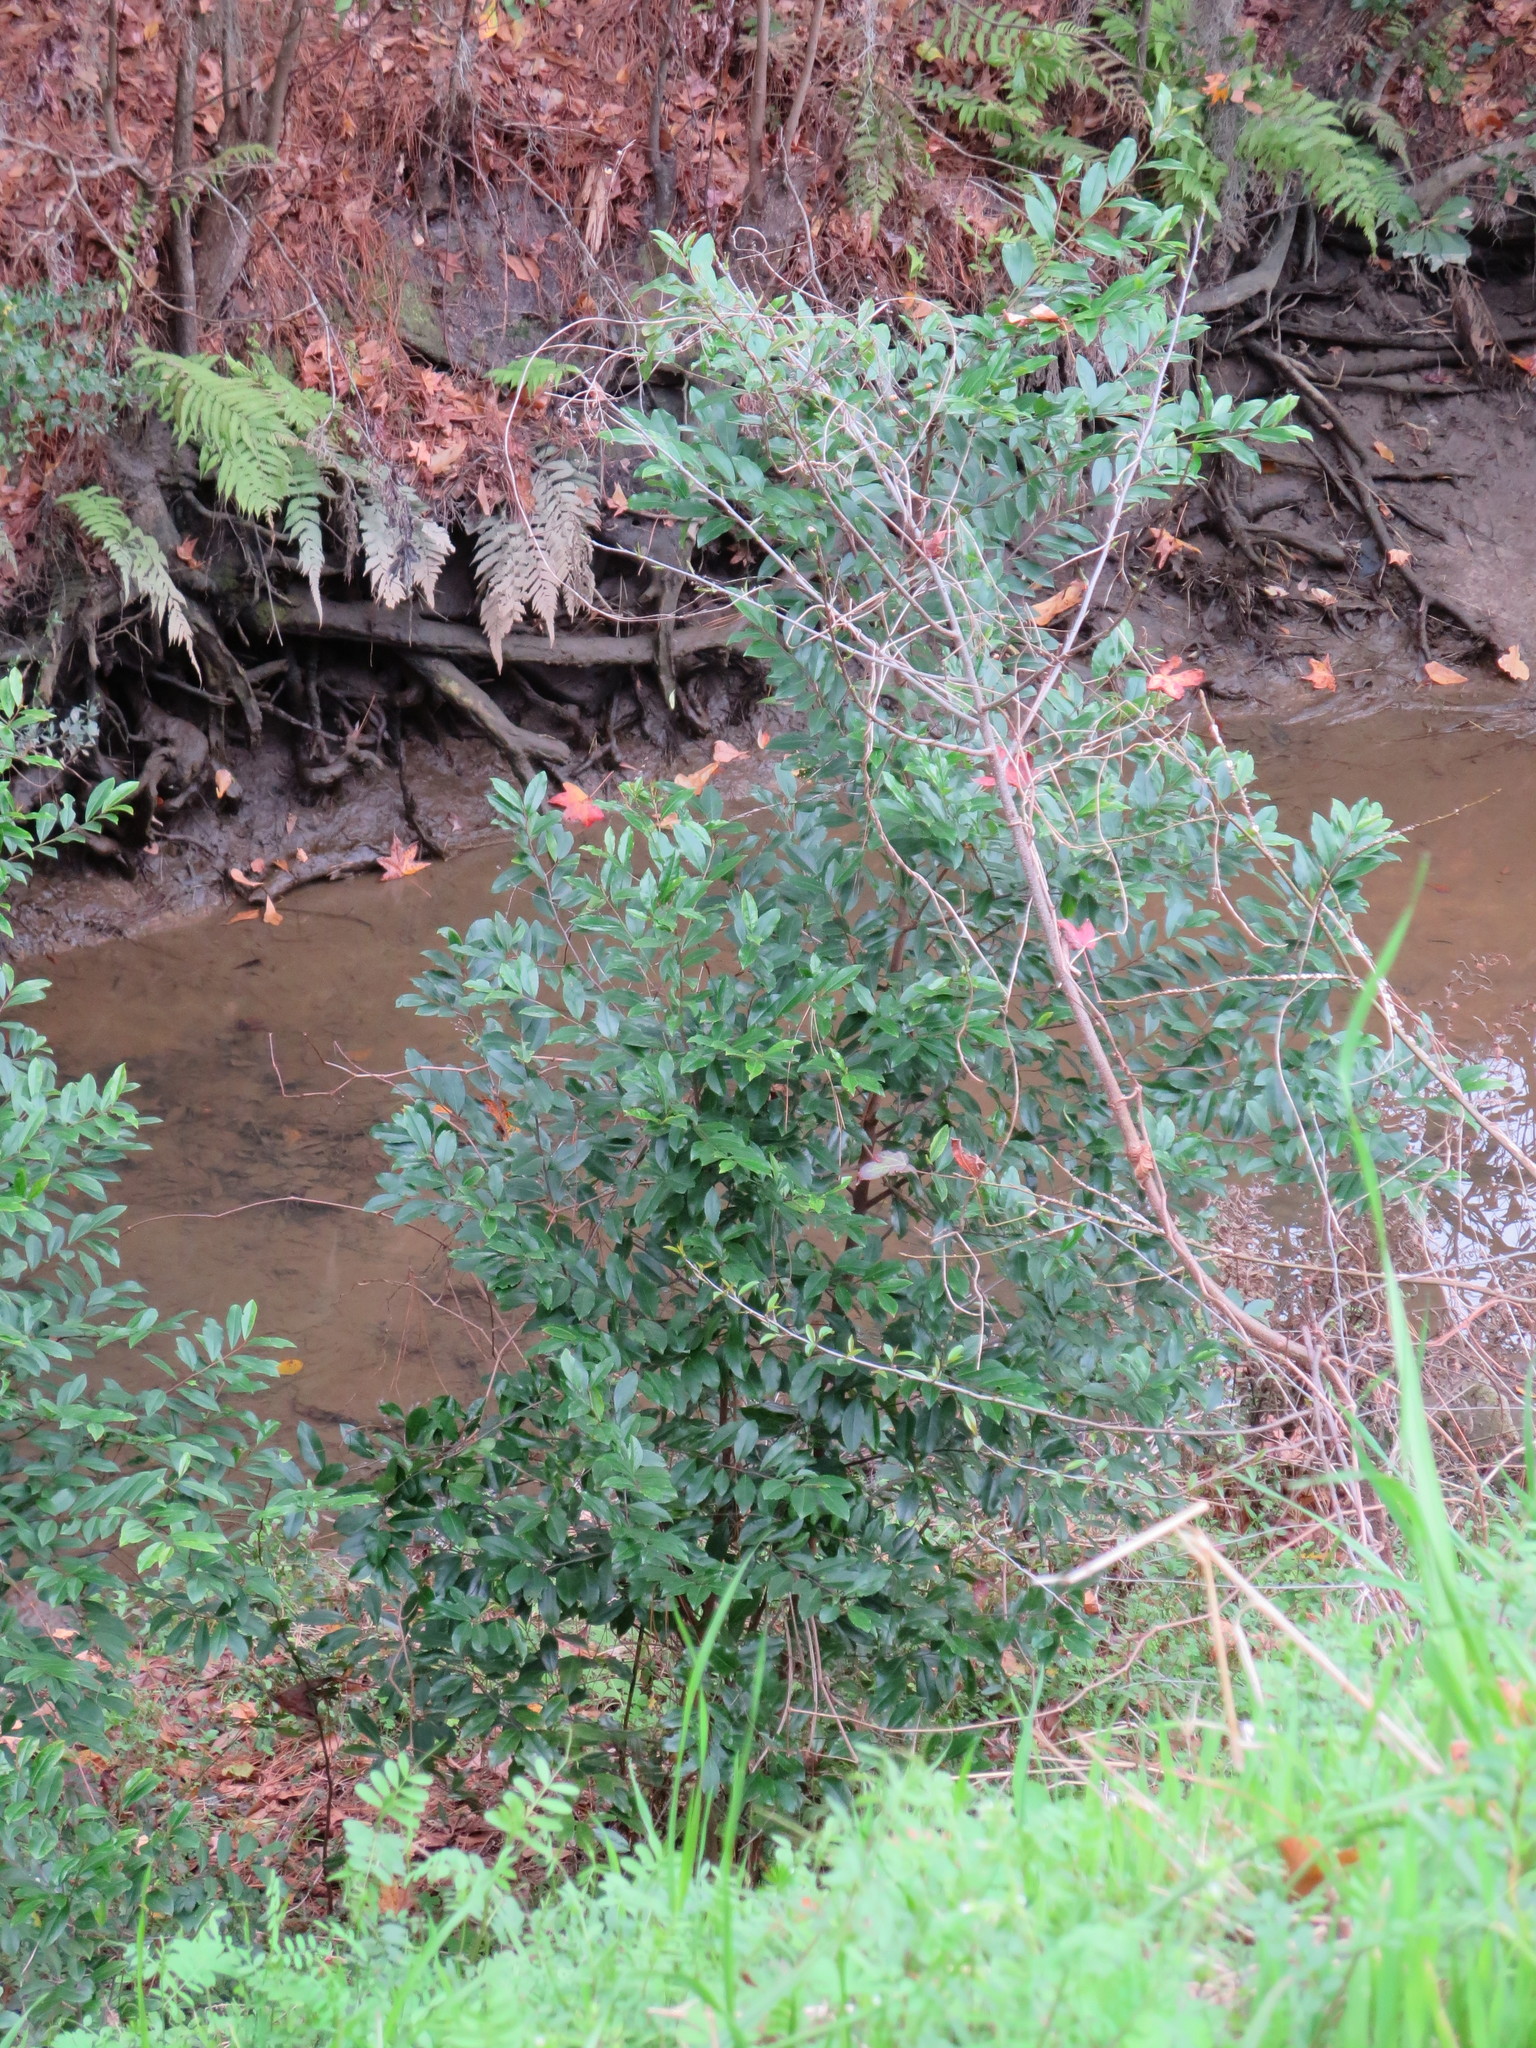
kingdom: Plantae
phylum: Tracheophyta
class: Magnoliopsida
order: Rosales
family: Rosaceae
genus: Prunus
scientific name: Prunus caroliniana
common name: Carolina laurel cherry
